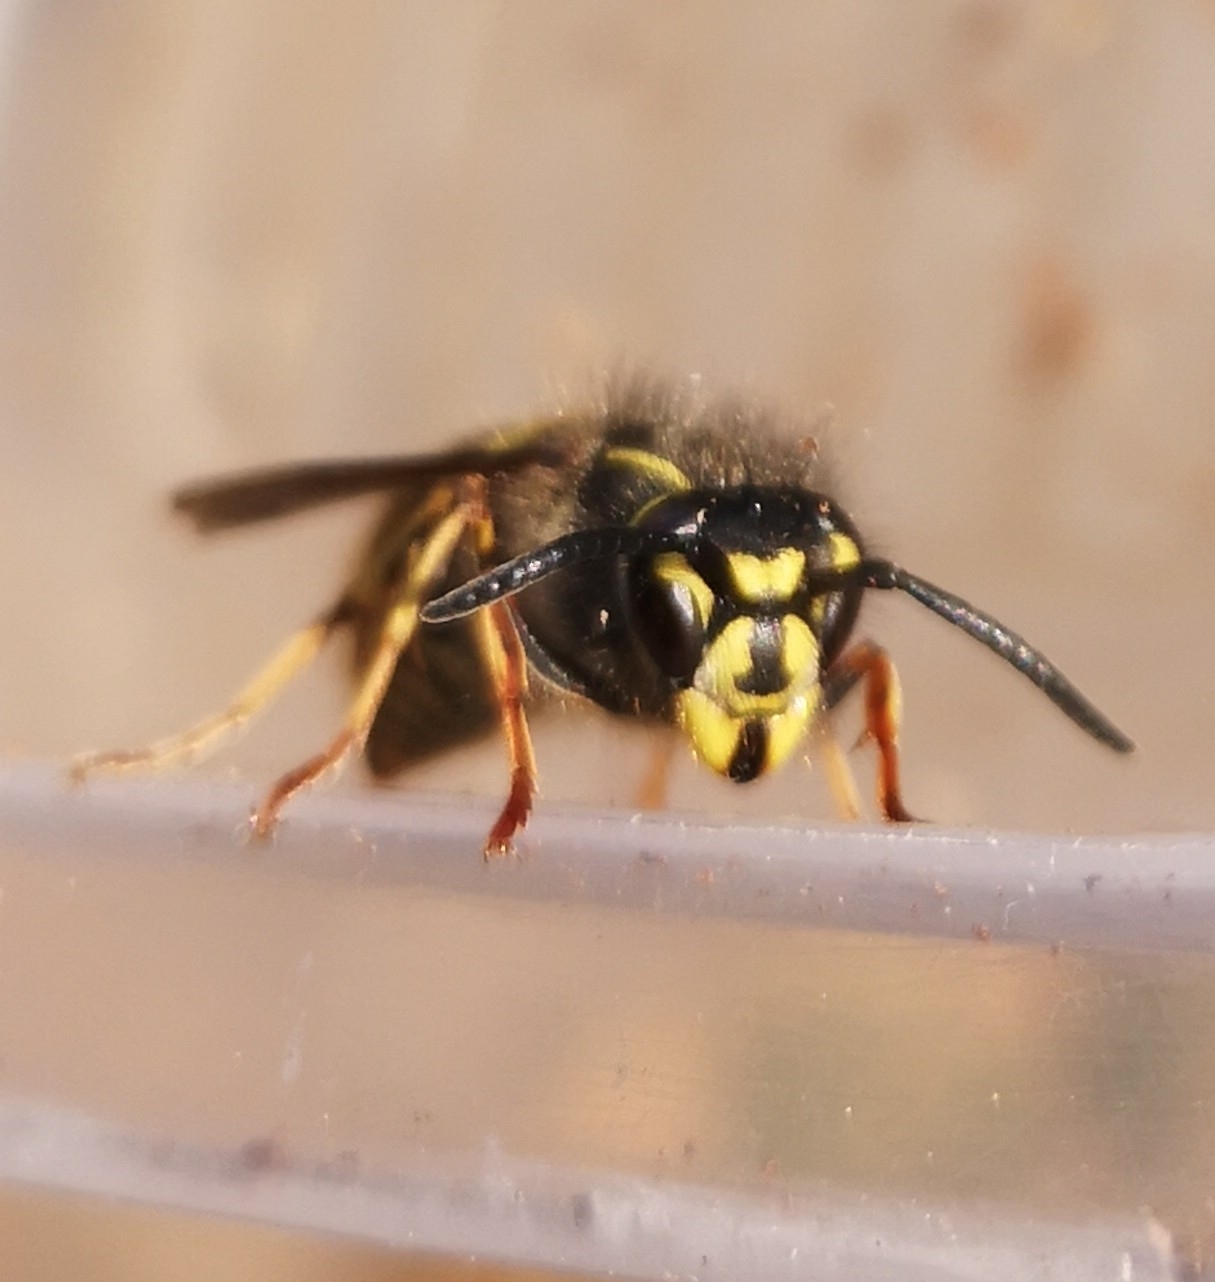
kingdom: Animalia
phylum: Arthropoda
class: Insecta
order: Hymenoptera
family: Vespidae
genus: Vespula
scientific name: Vespula vulgaris
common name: Common wasp
